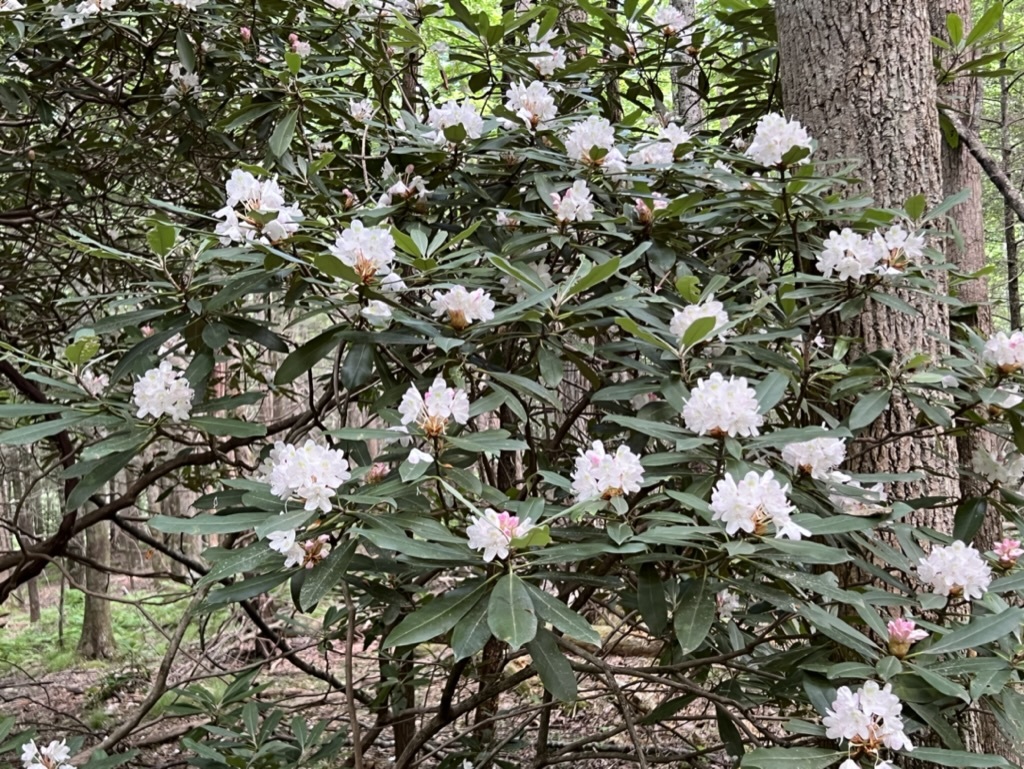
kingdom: Plantae
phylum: Tracheophyta
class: Magnoliopsida
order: Ericales
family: Ericaceae
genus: Rhododendron
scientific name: Rhododendron maximum
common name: Great rhododendron
